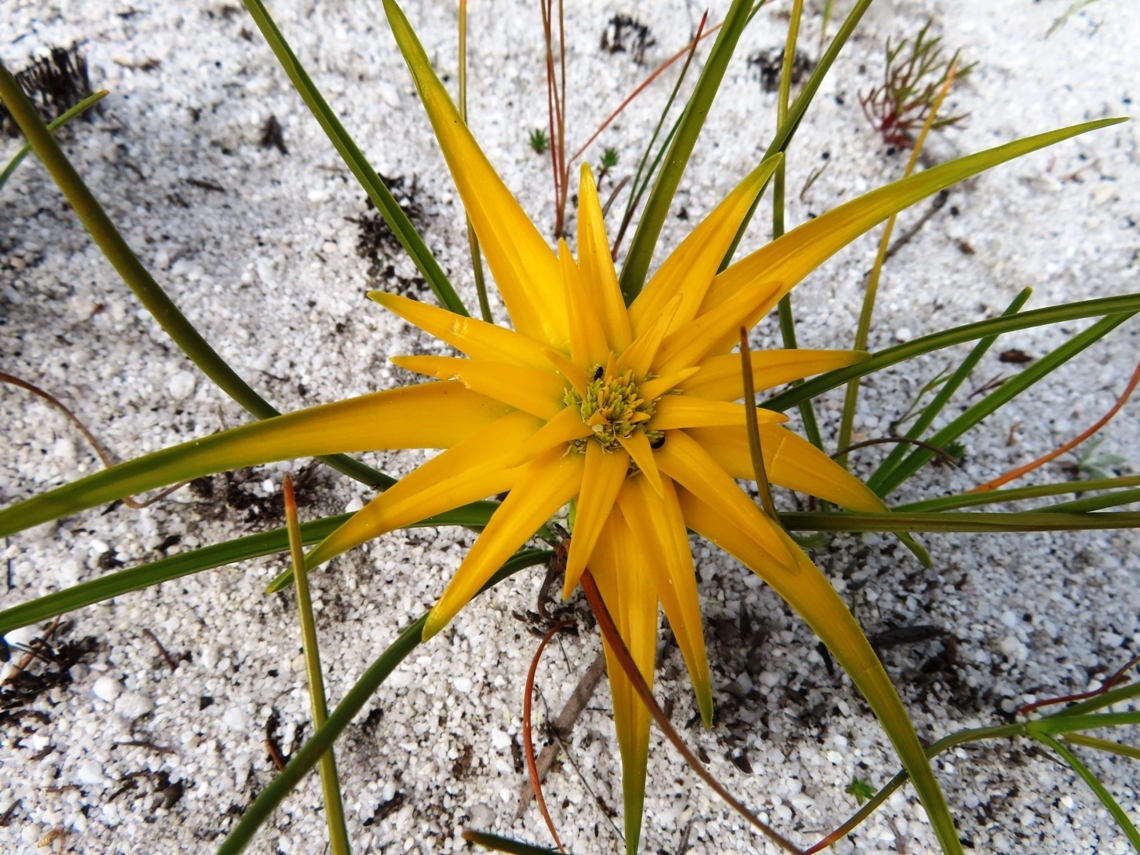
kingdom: Plantae
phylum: Tracheophyta
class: Liliopsida
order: Poales
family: Cyperaceae
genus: Ficinia
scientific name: Ficinia radiata
